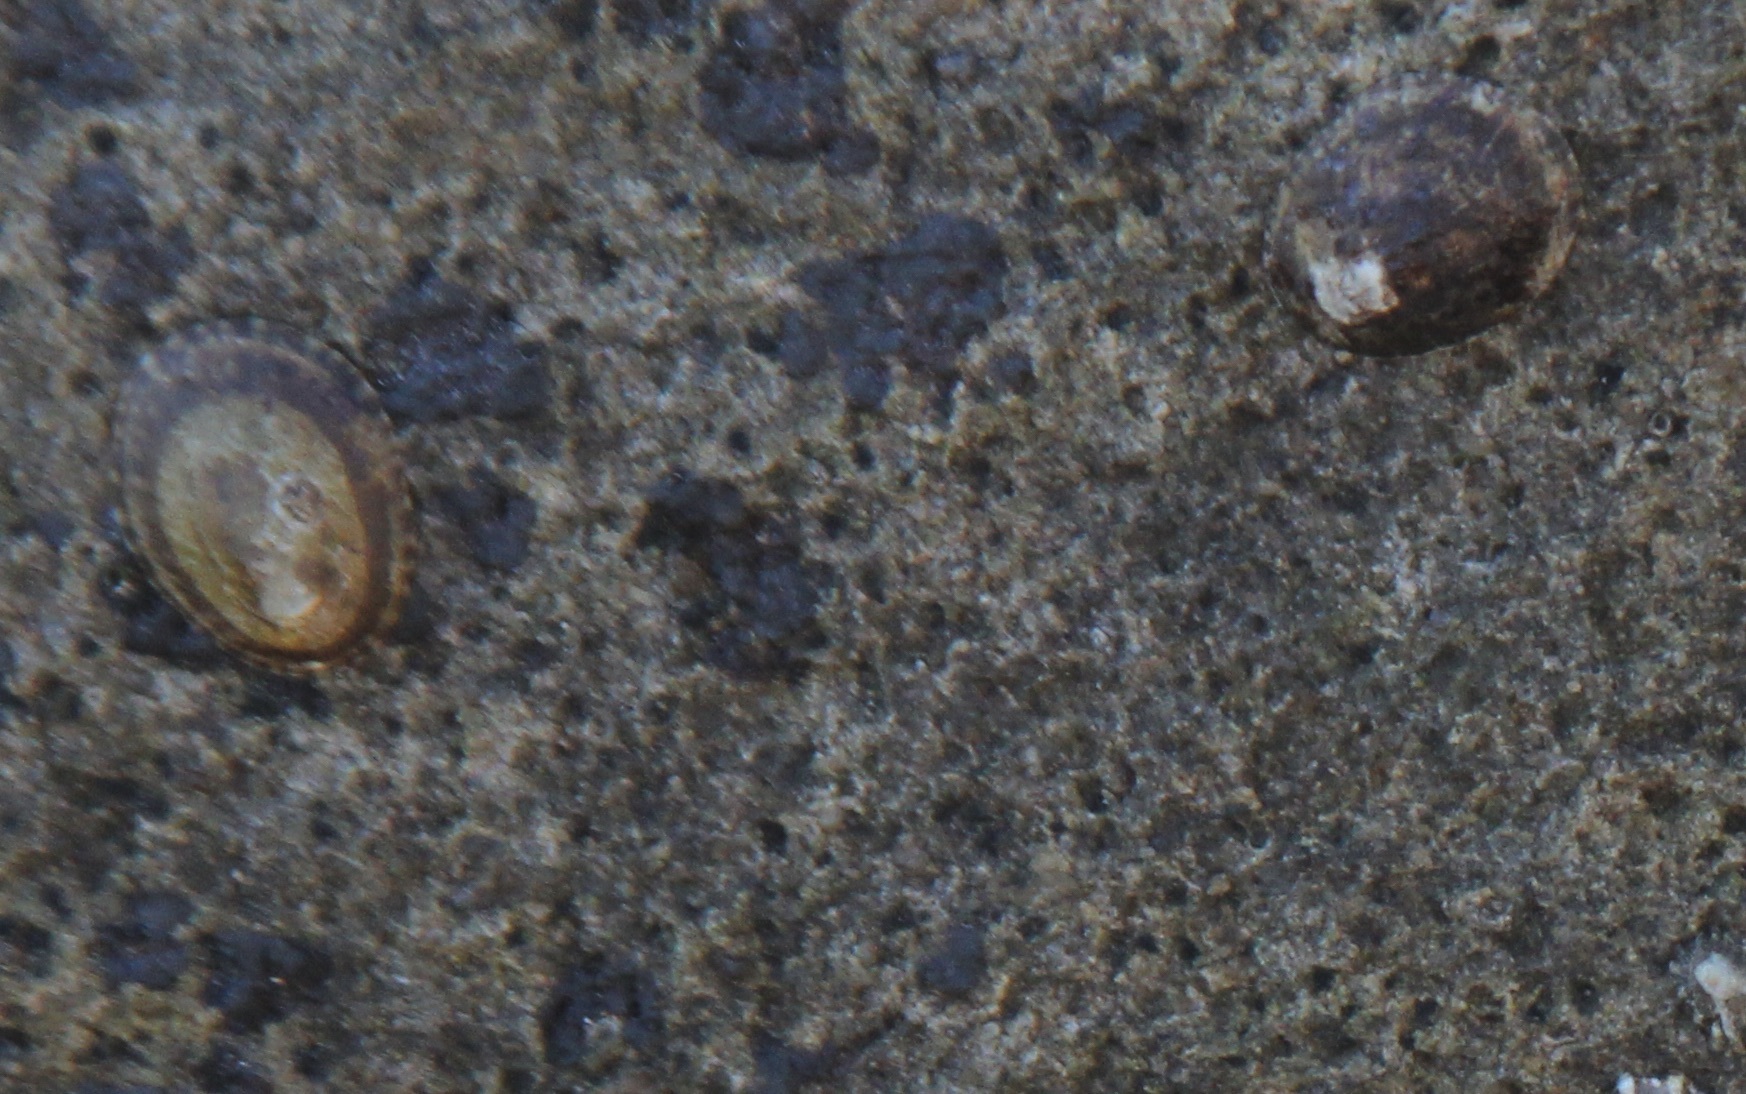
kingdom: Animalia
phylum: Mollusca
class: Gastropoda
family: Lottiidae
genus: Lottia
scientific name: Lottia gigantea
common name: Owl limpet
